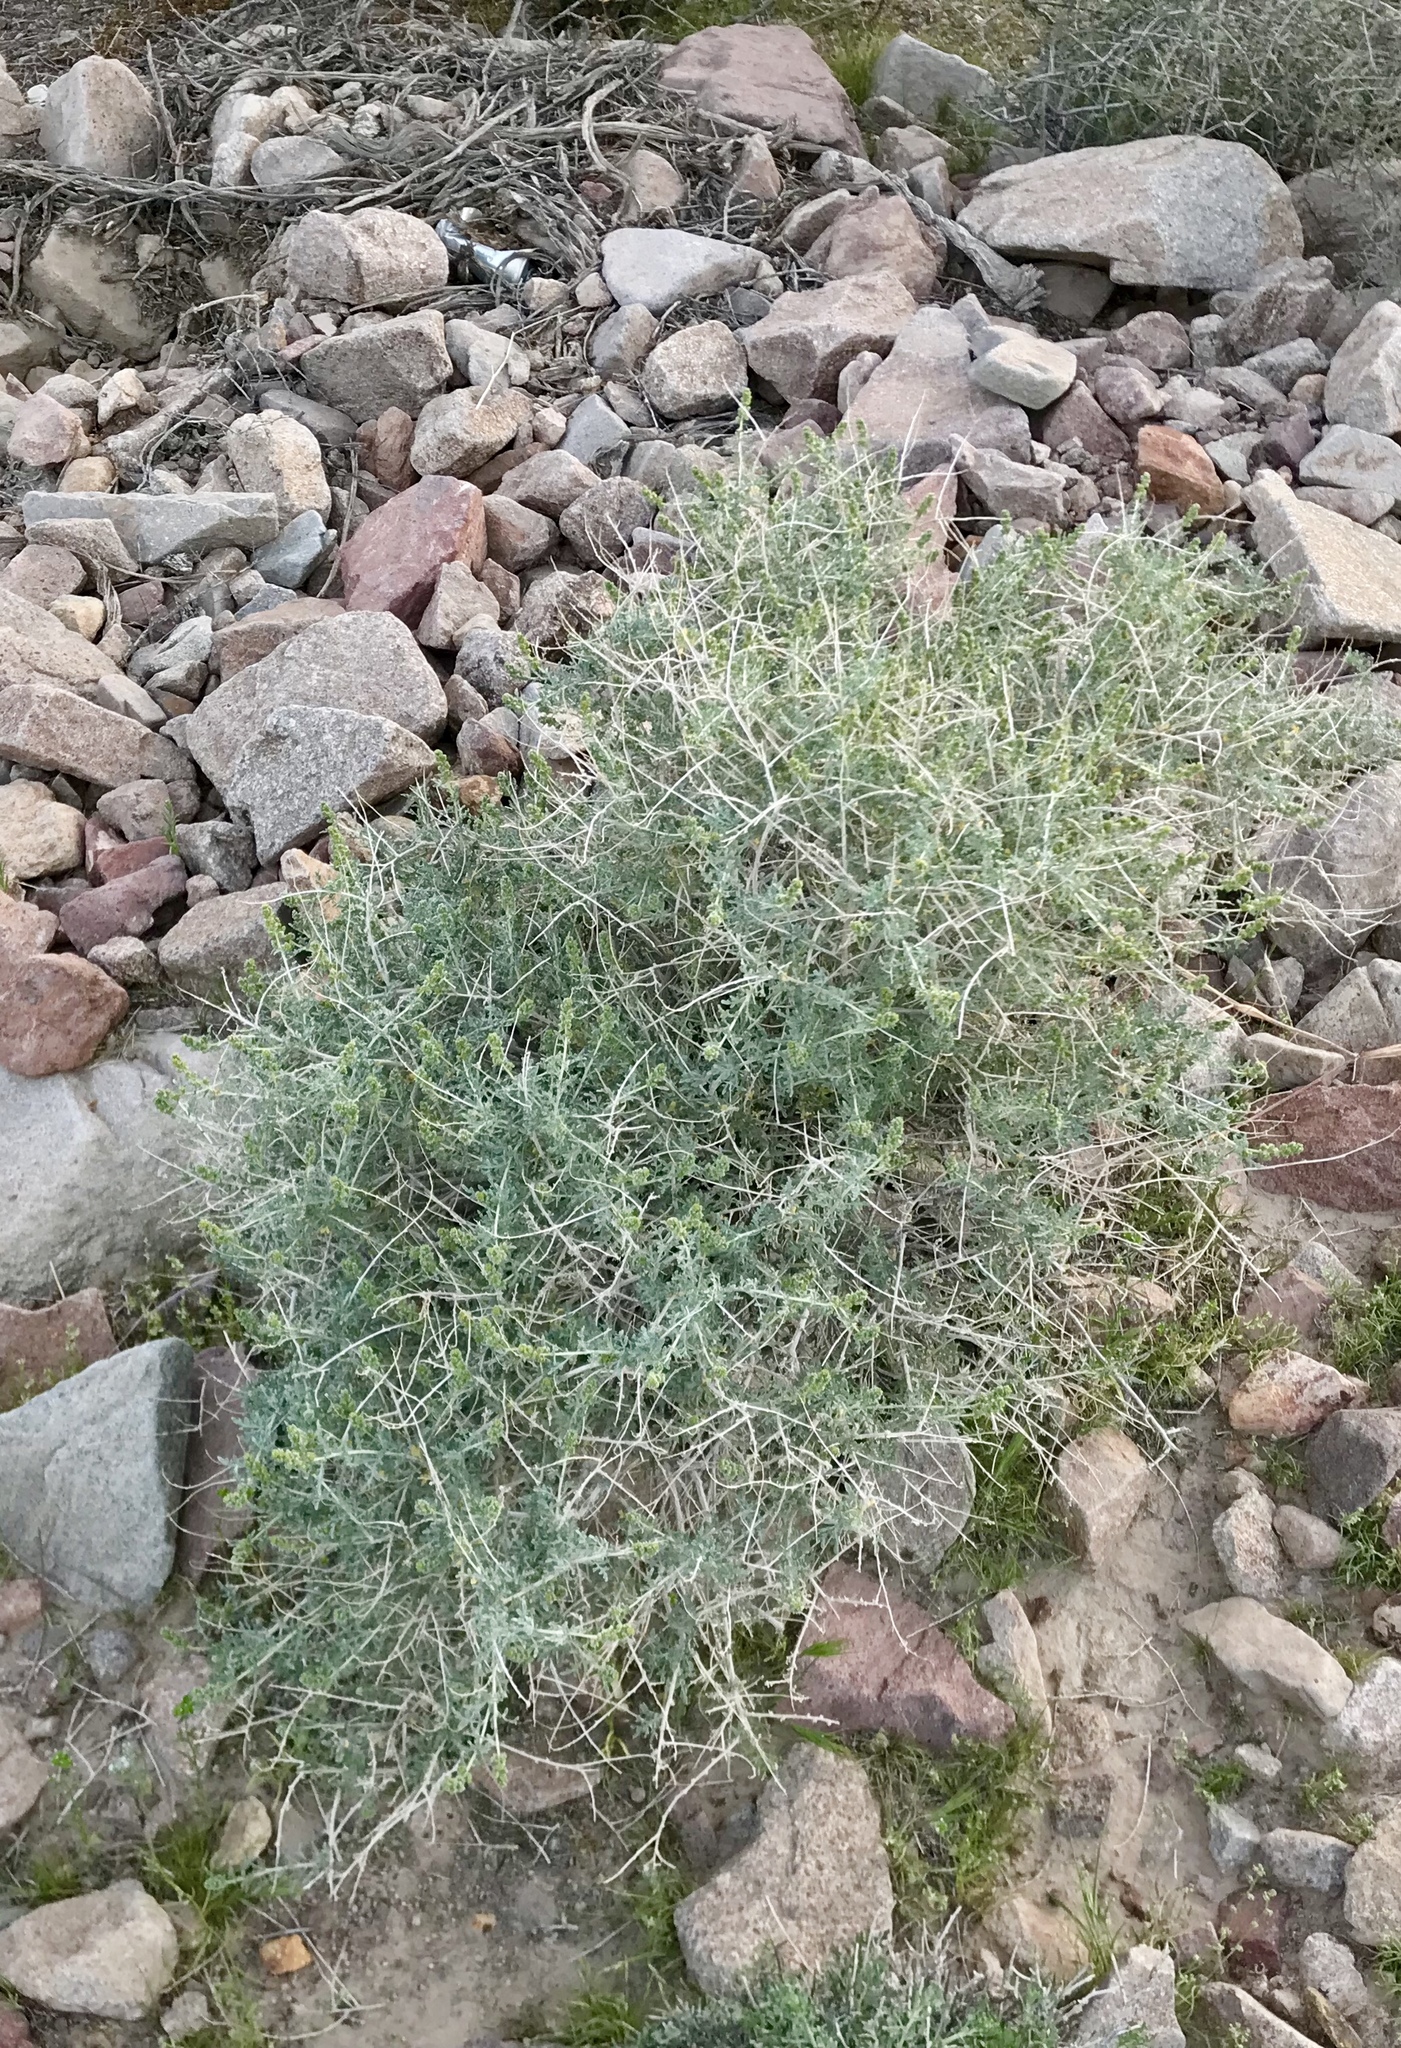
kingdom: Plantae
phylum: Tracheophyta
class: Magnoliopsida
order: Asterales
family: Asteraceae
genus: Ambrosia
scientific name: Ambrosia dumosa
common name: Bur-sage
